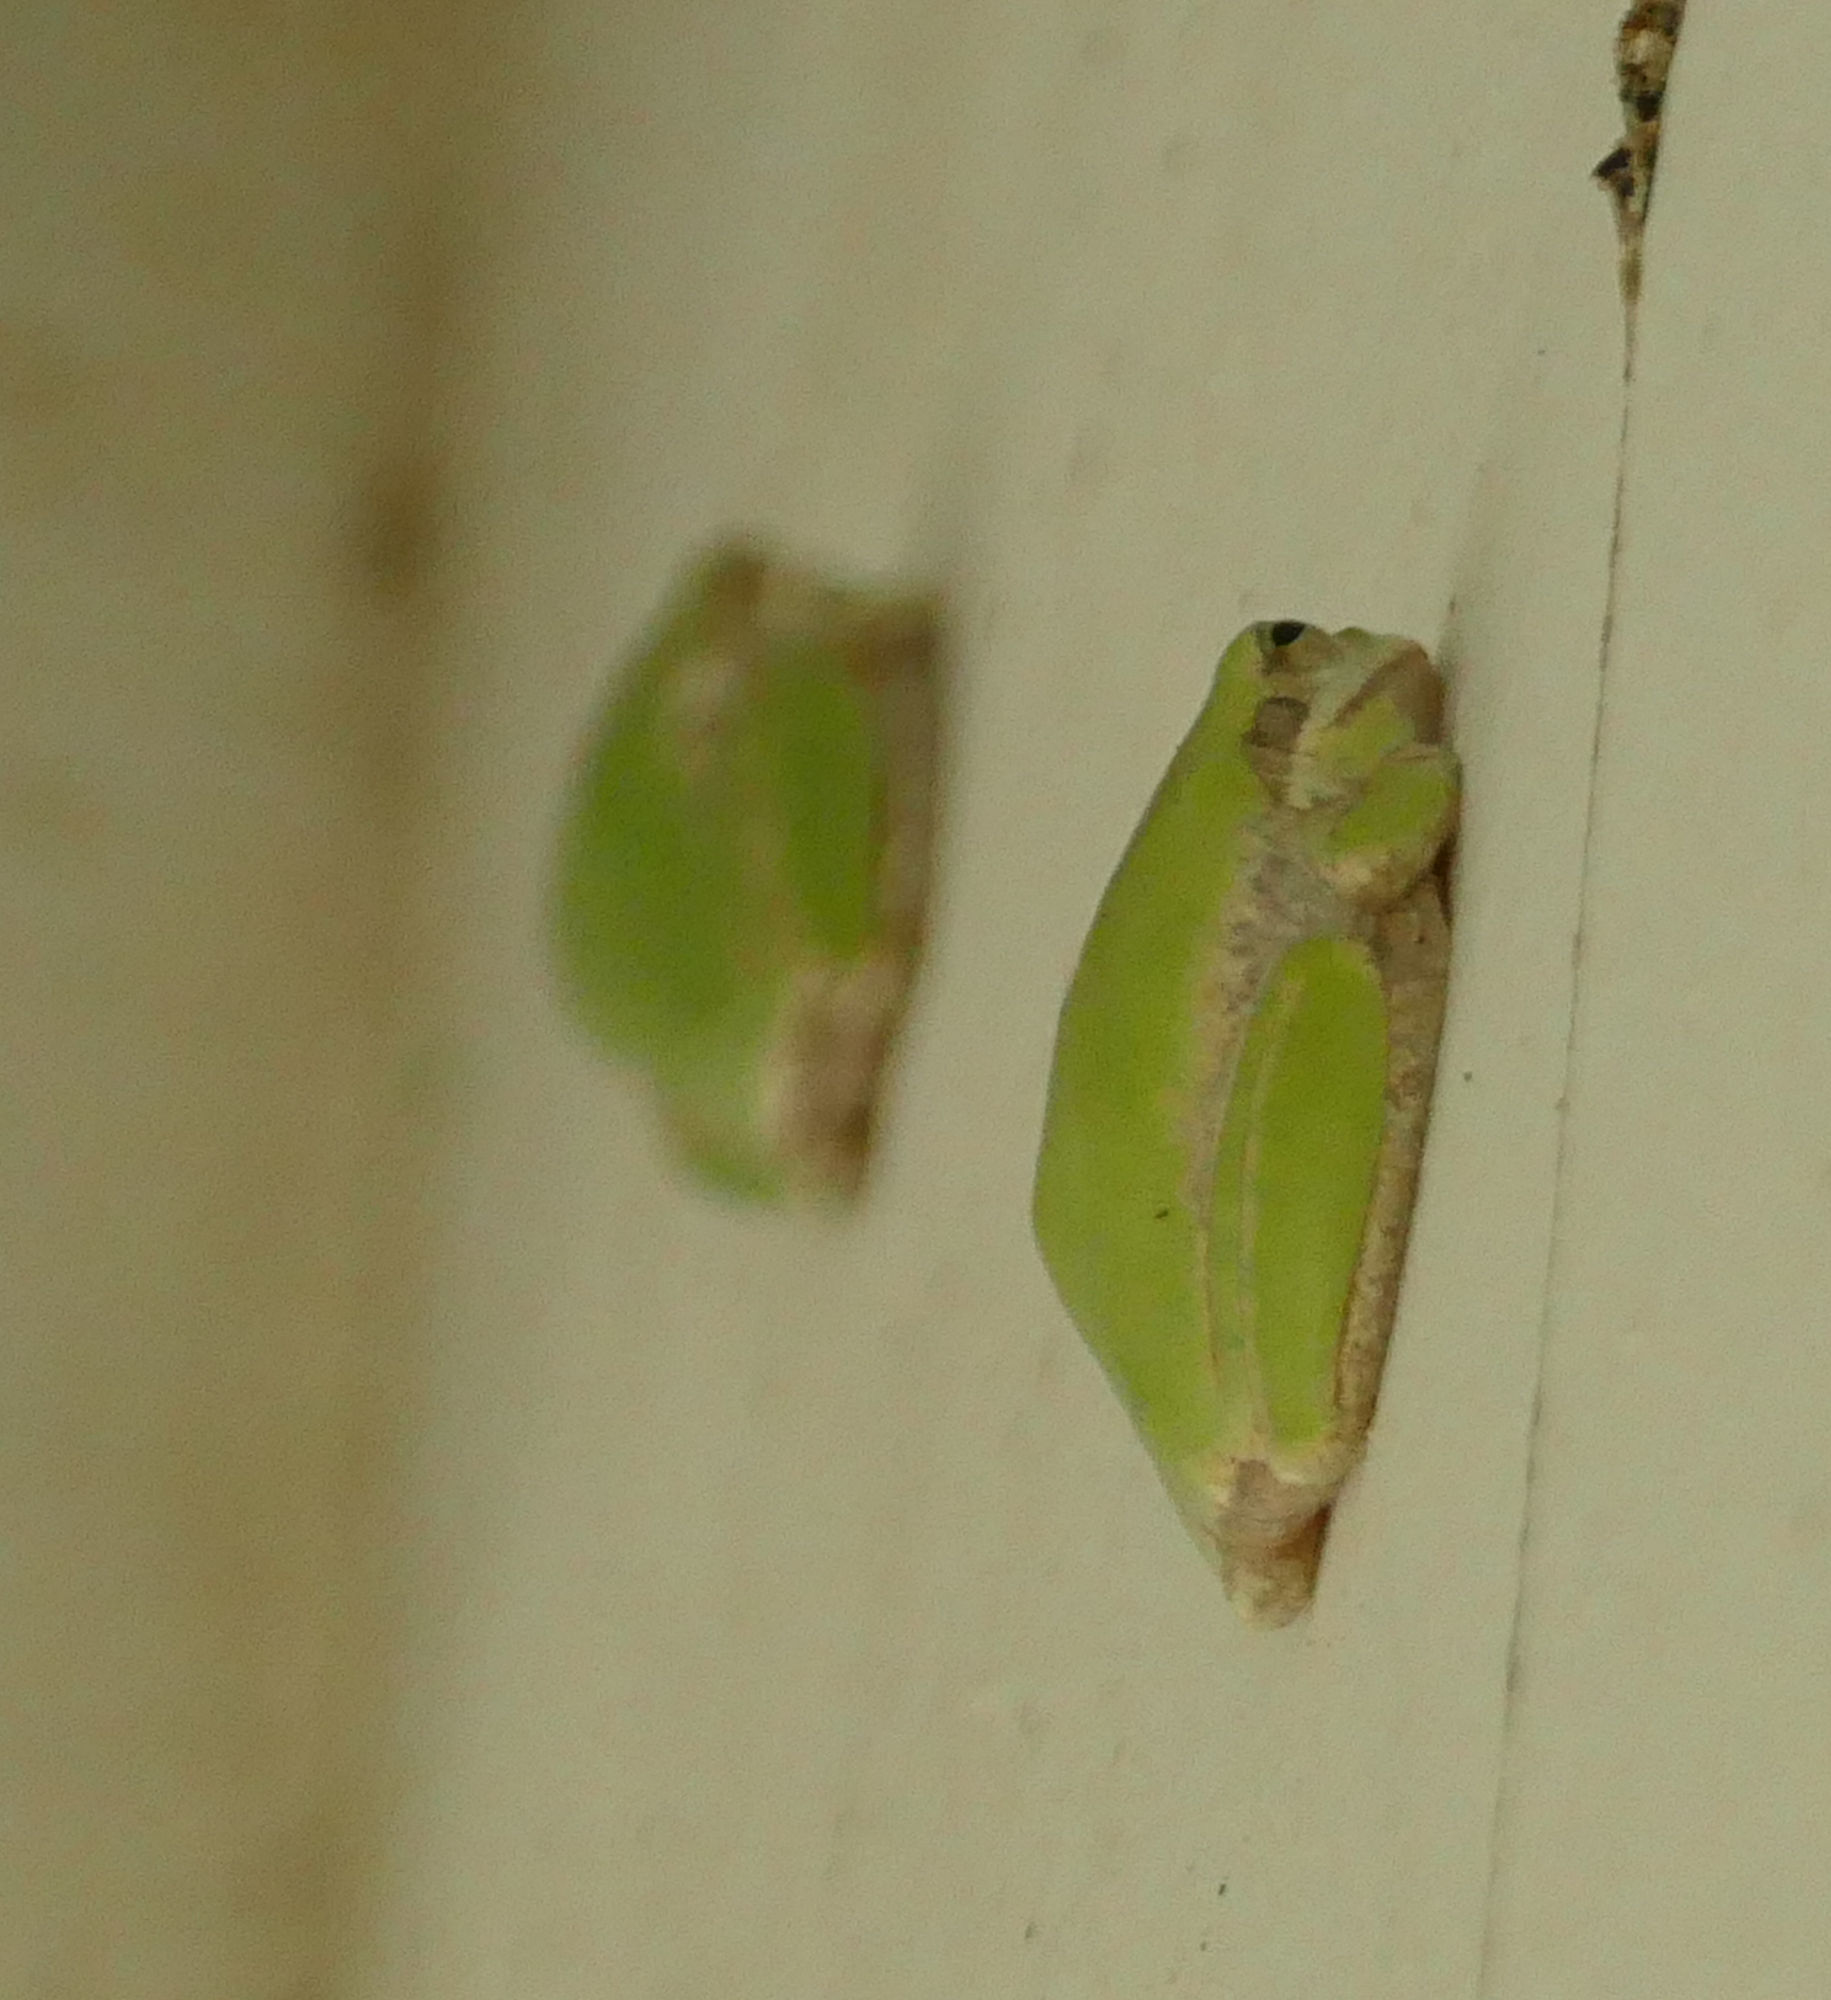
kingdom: Animalia
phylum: Chordata
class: Amphibia
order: Anura
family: Hylidae
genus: Dryophytes
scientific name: Dryophytes squirellus
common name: Squirrel treefrog
